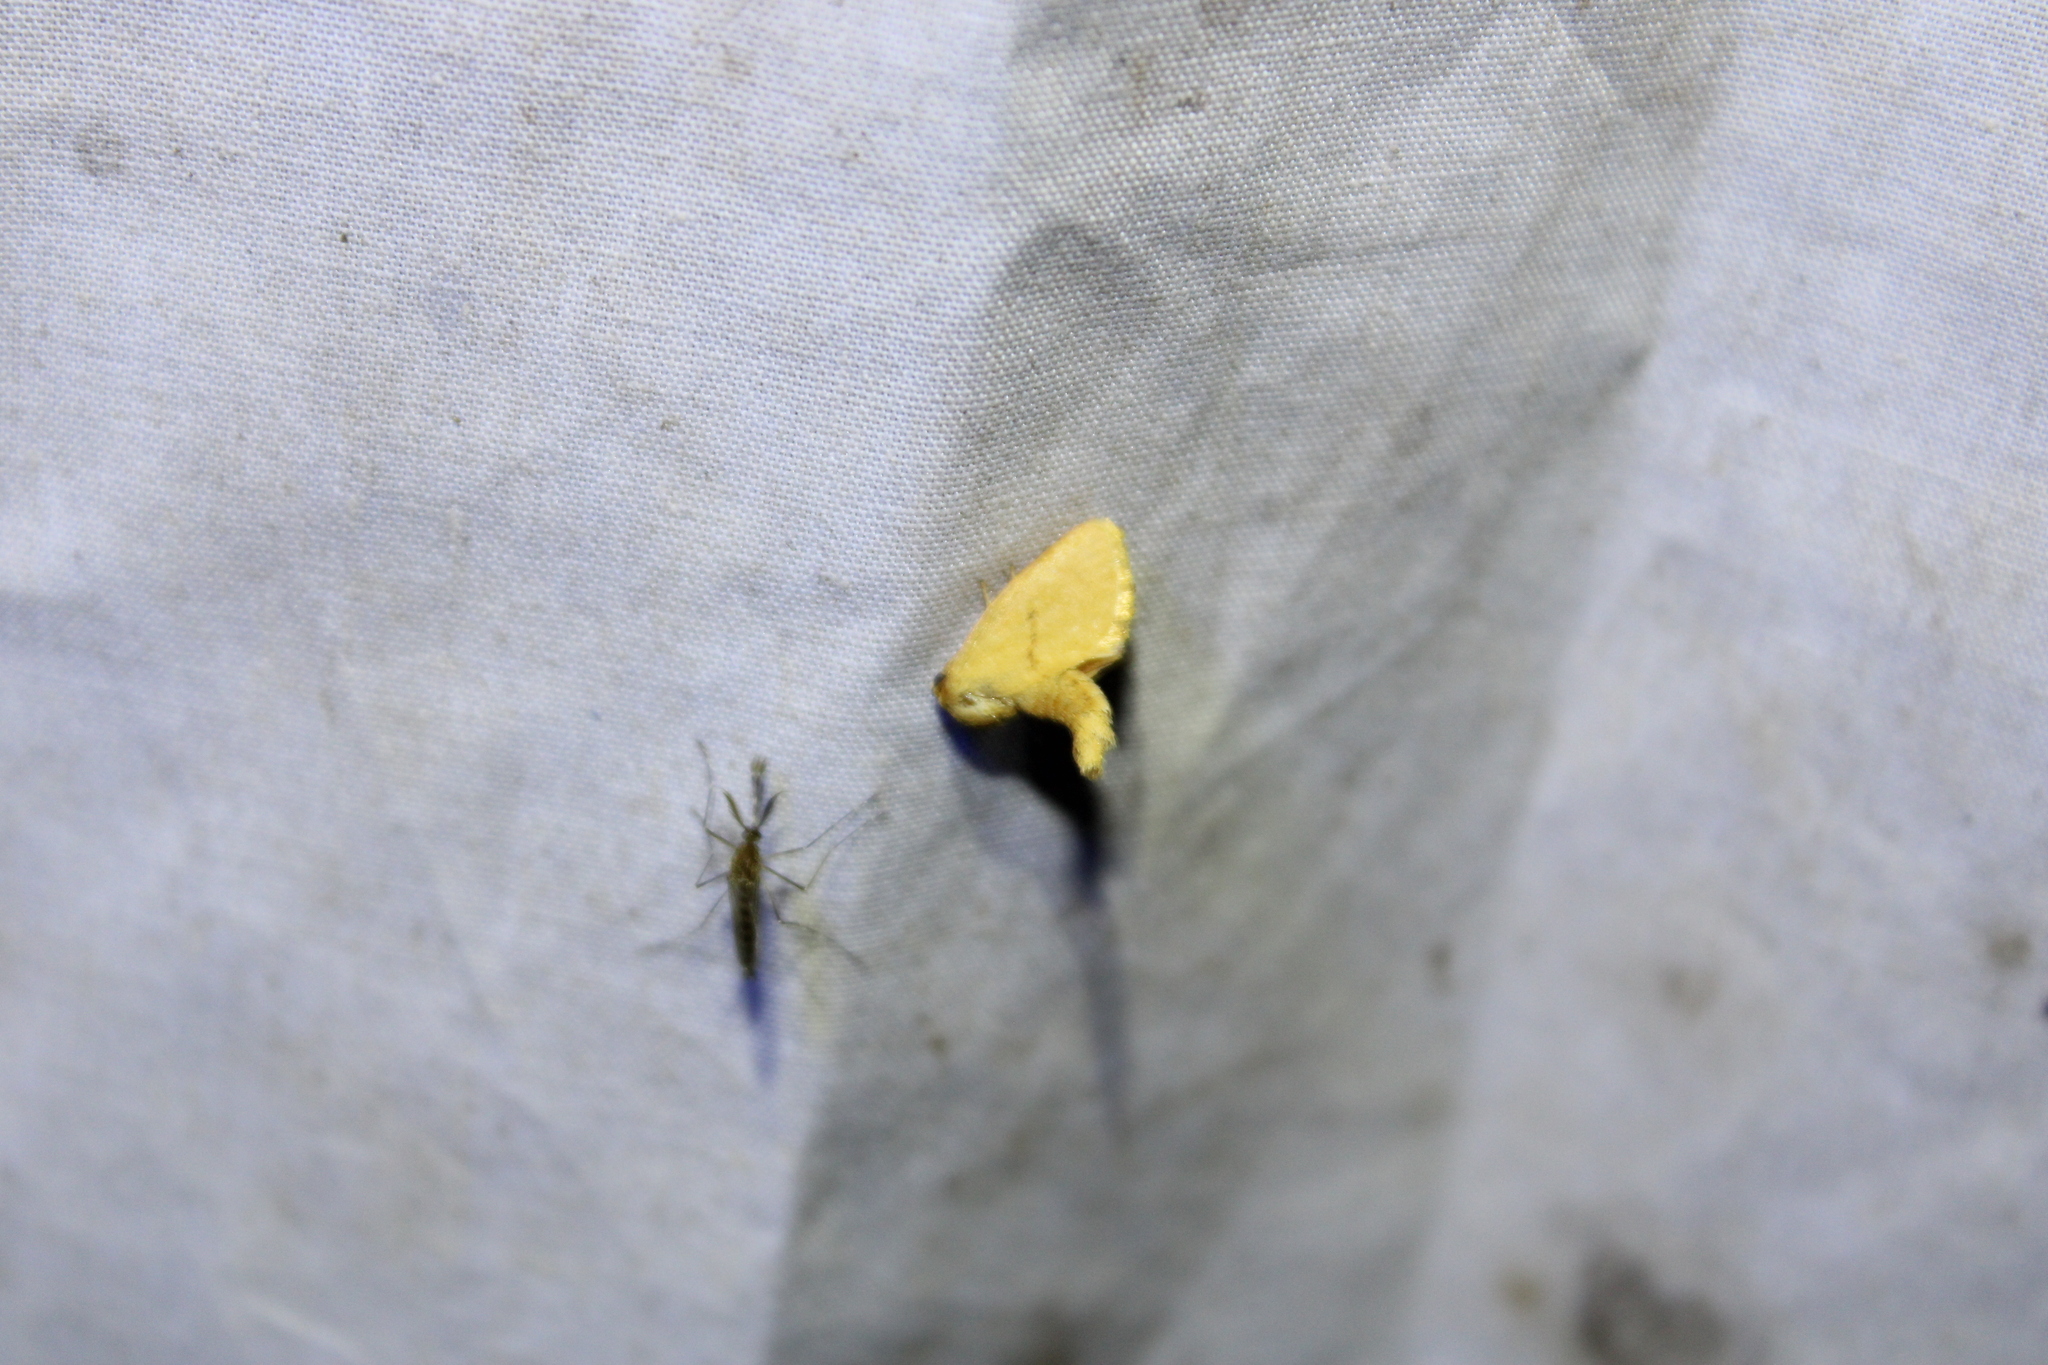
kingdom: Animalia
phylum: Arthropoda
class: Insecta
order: Lepidoptera
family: Limacodidae
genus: Tortricidia
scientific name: Tortricidia pallida
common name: Red-crossed button slug moth
